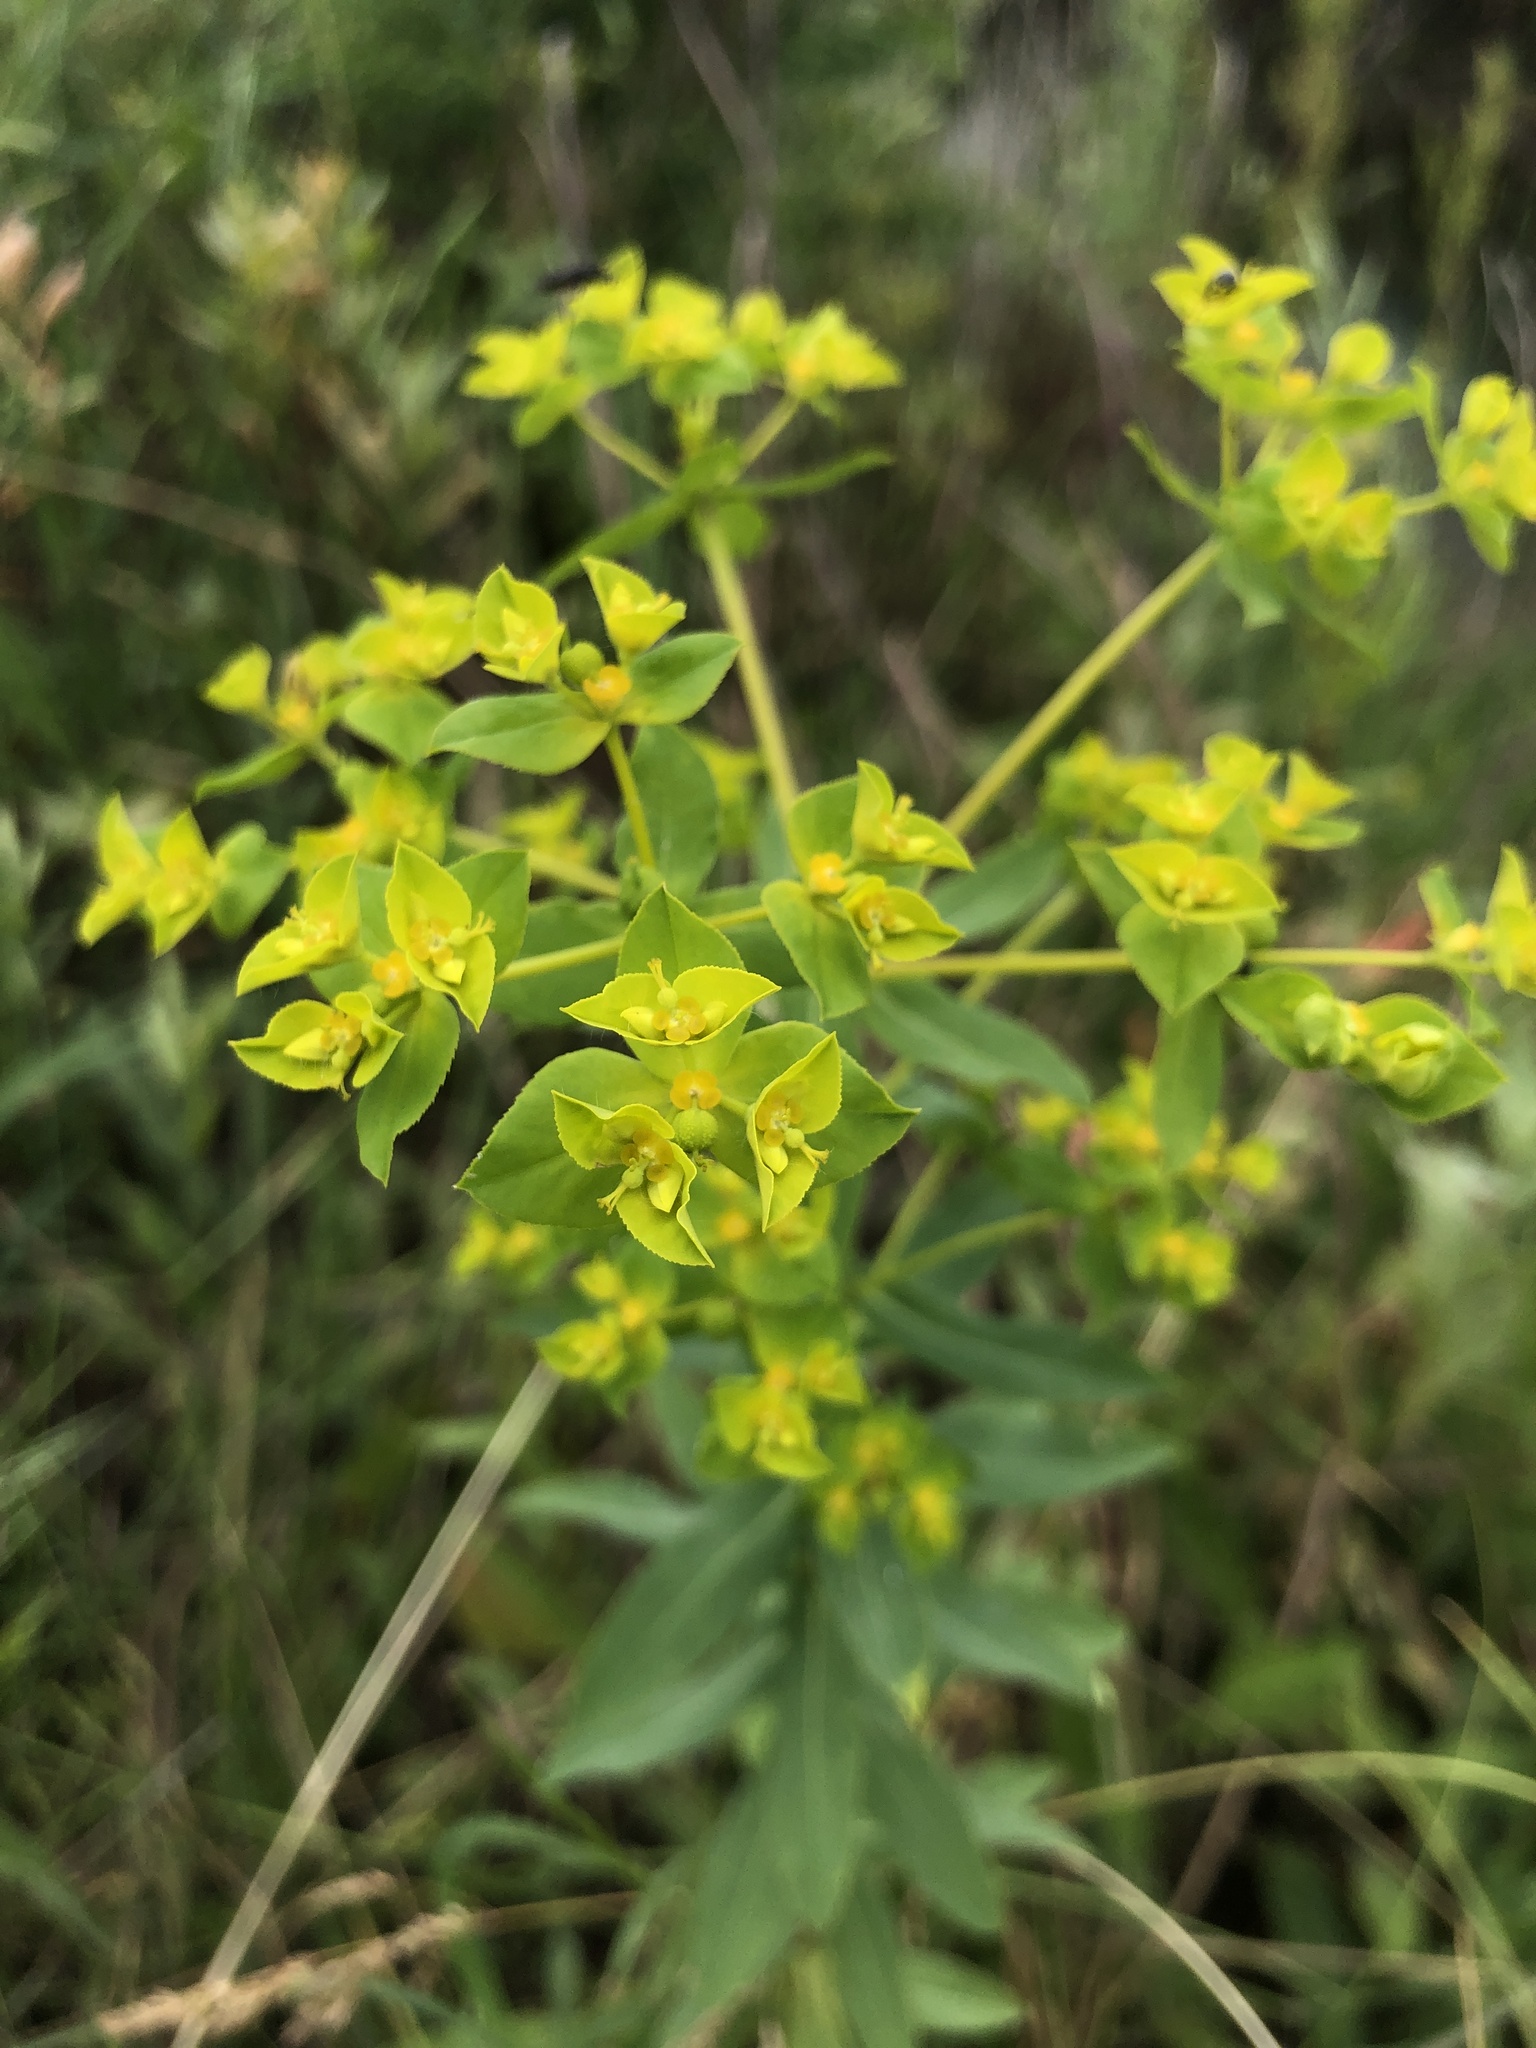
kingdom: Plantae
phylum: Tracheophyta
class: Magnoliopsida
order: Malpighiales
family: Euphorbiaceae
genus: Euphorbia
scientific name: Euphorbia platyphyllos
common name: Broad-leaved spurge
